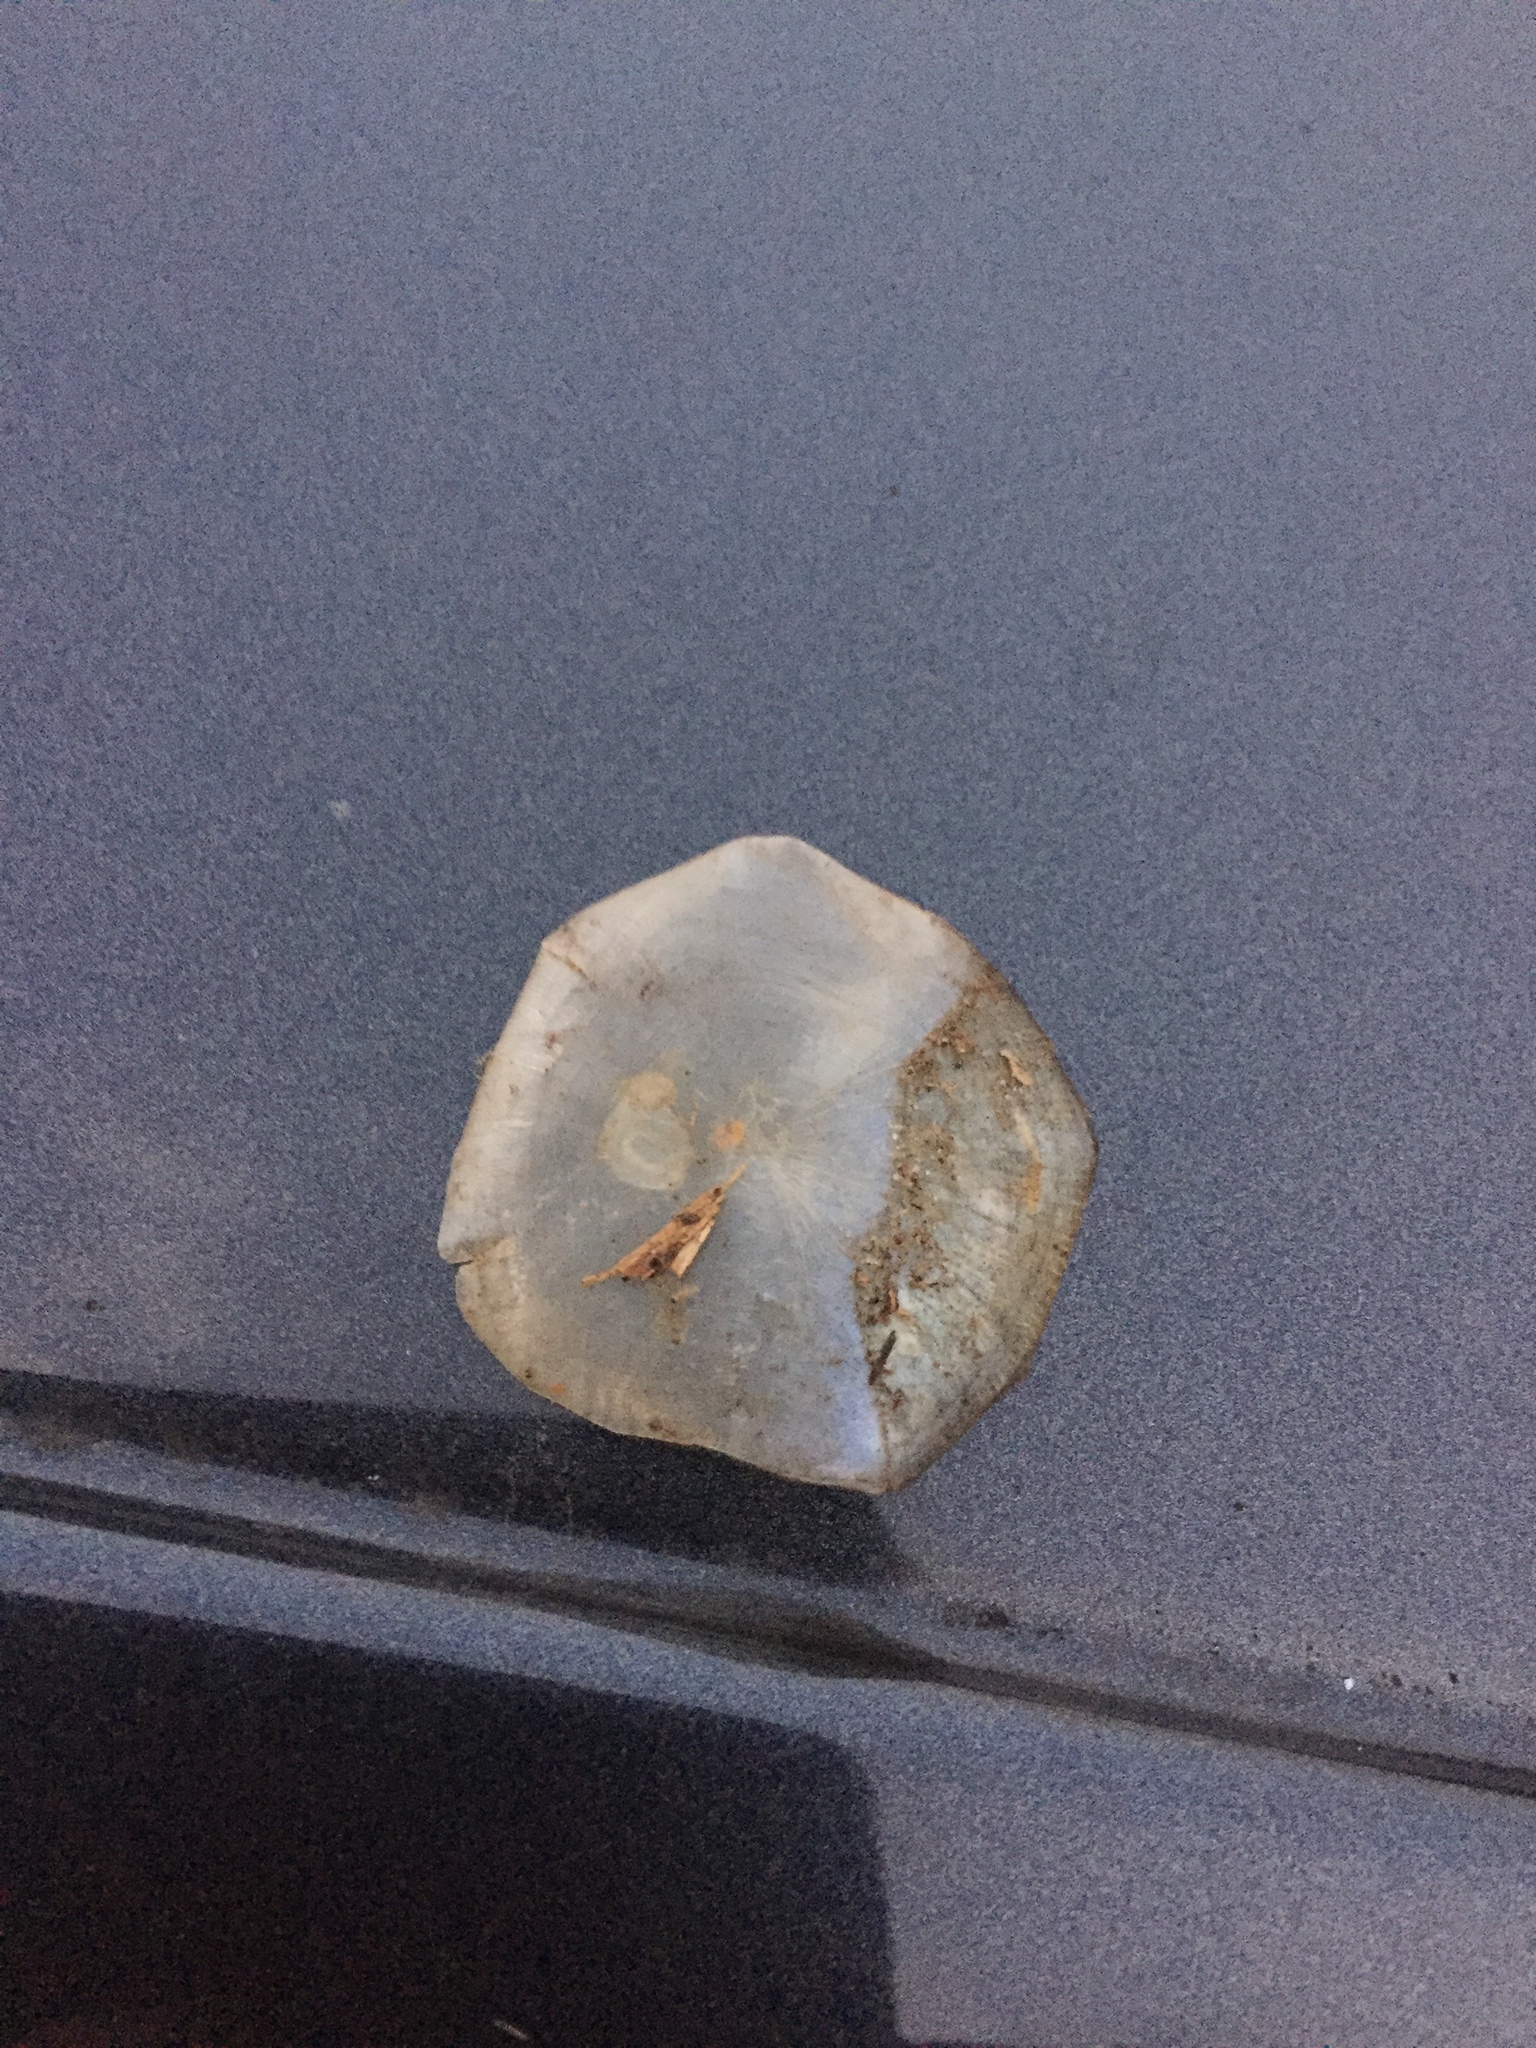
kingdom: Animalia
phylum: Chordata
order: Cypriniformes
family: Cyprinidae
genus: Cyprinus
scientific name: Cyprinus carpio
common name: Common carp
